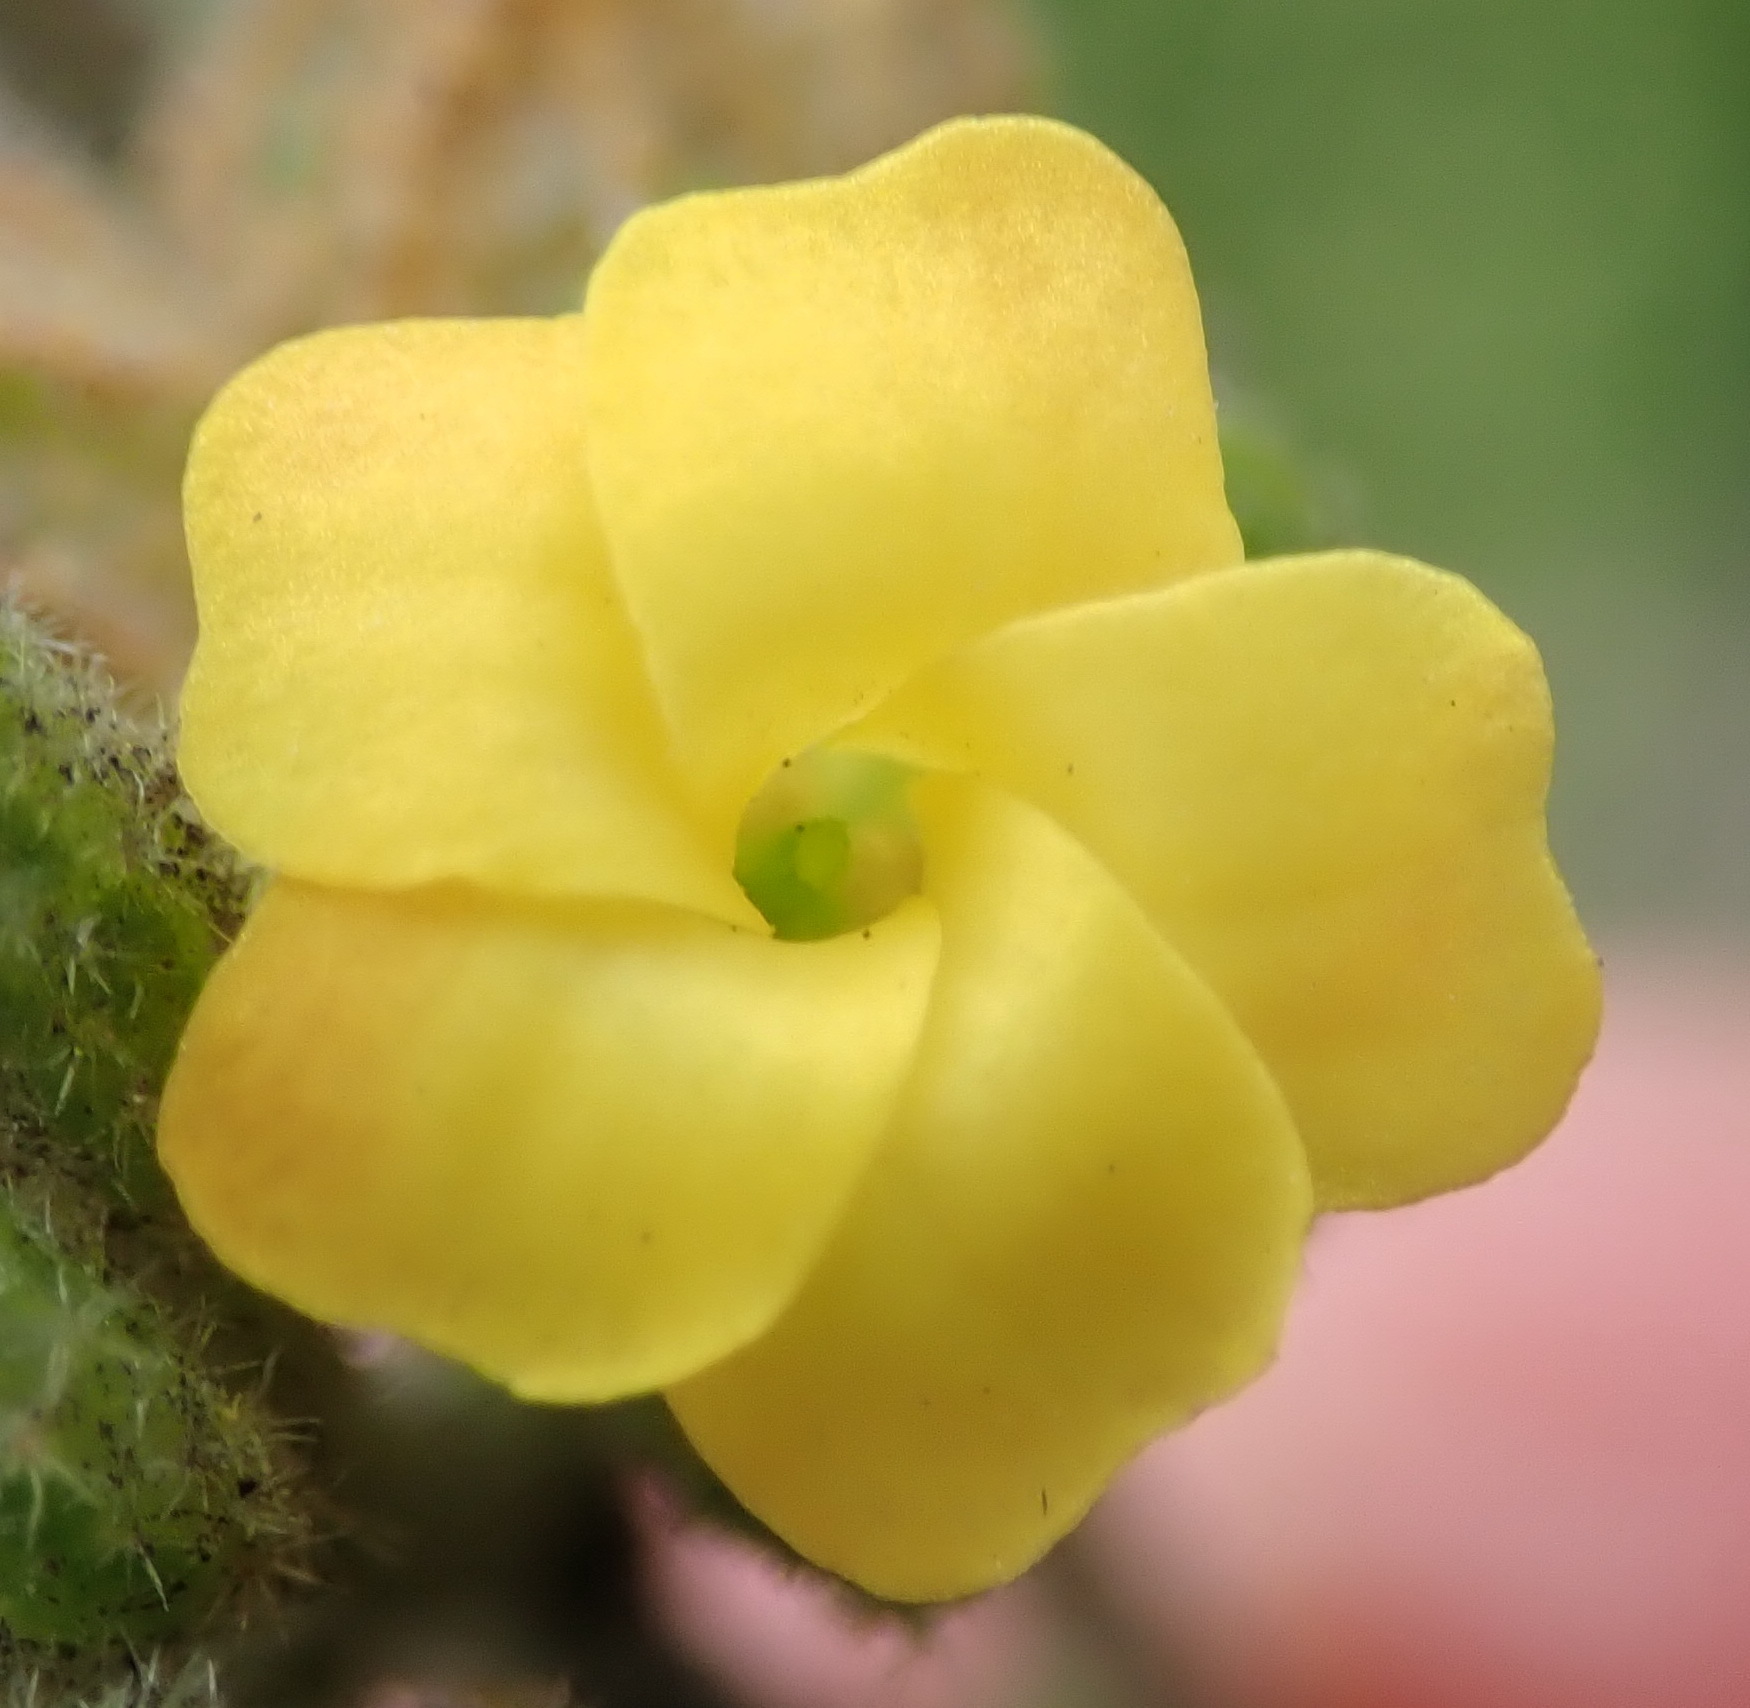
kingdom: Plantae
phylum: Tracheophyta
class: Magnoliopsida
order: Malvales
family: Malvaceae
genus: Hermannia
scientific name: Hermannia salviifolia
